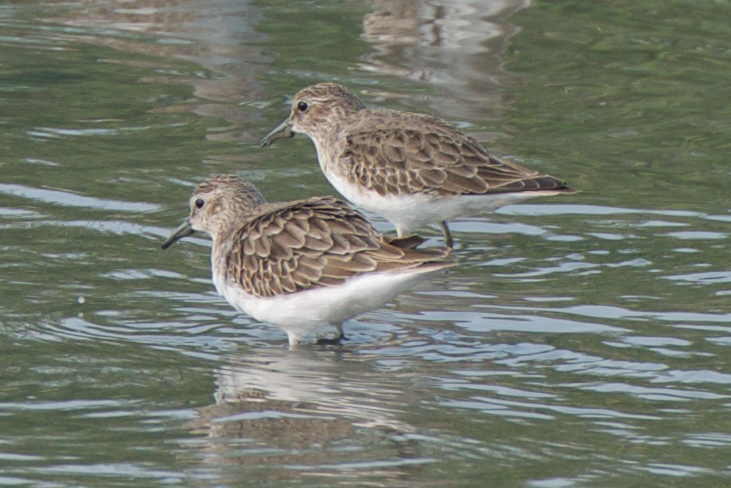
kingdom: Animalia
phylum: Chordata
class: Aves
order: Charadriiformes
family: Scolopacidae
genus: Calidris
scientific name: Calidris minutilla
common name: Least sandpiper
